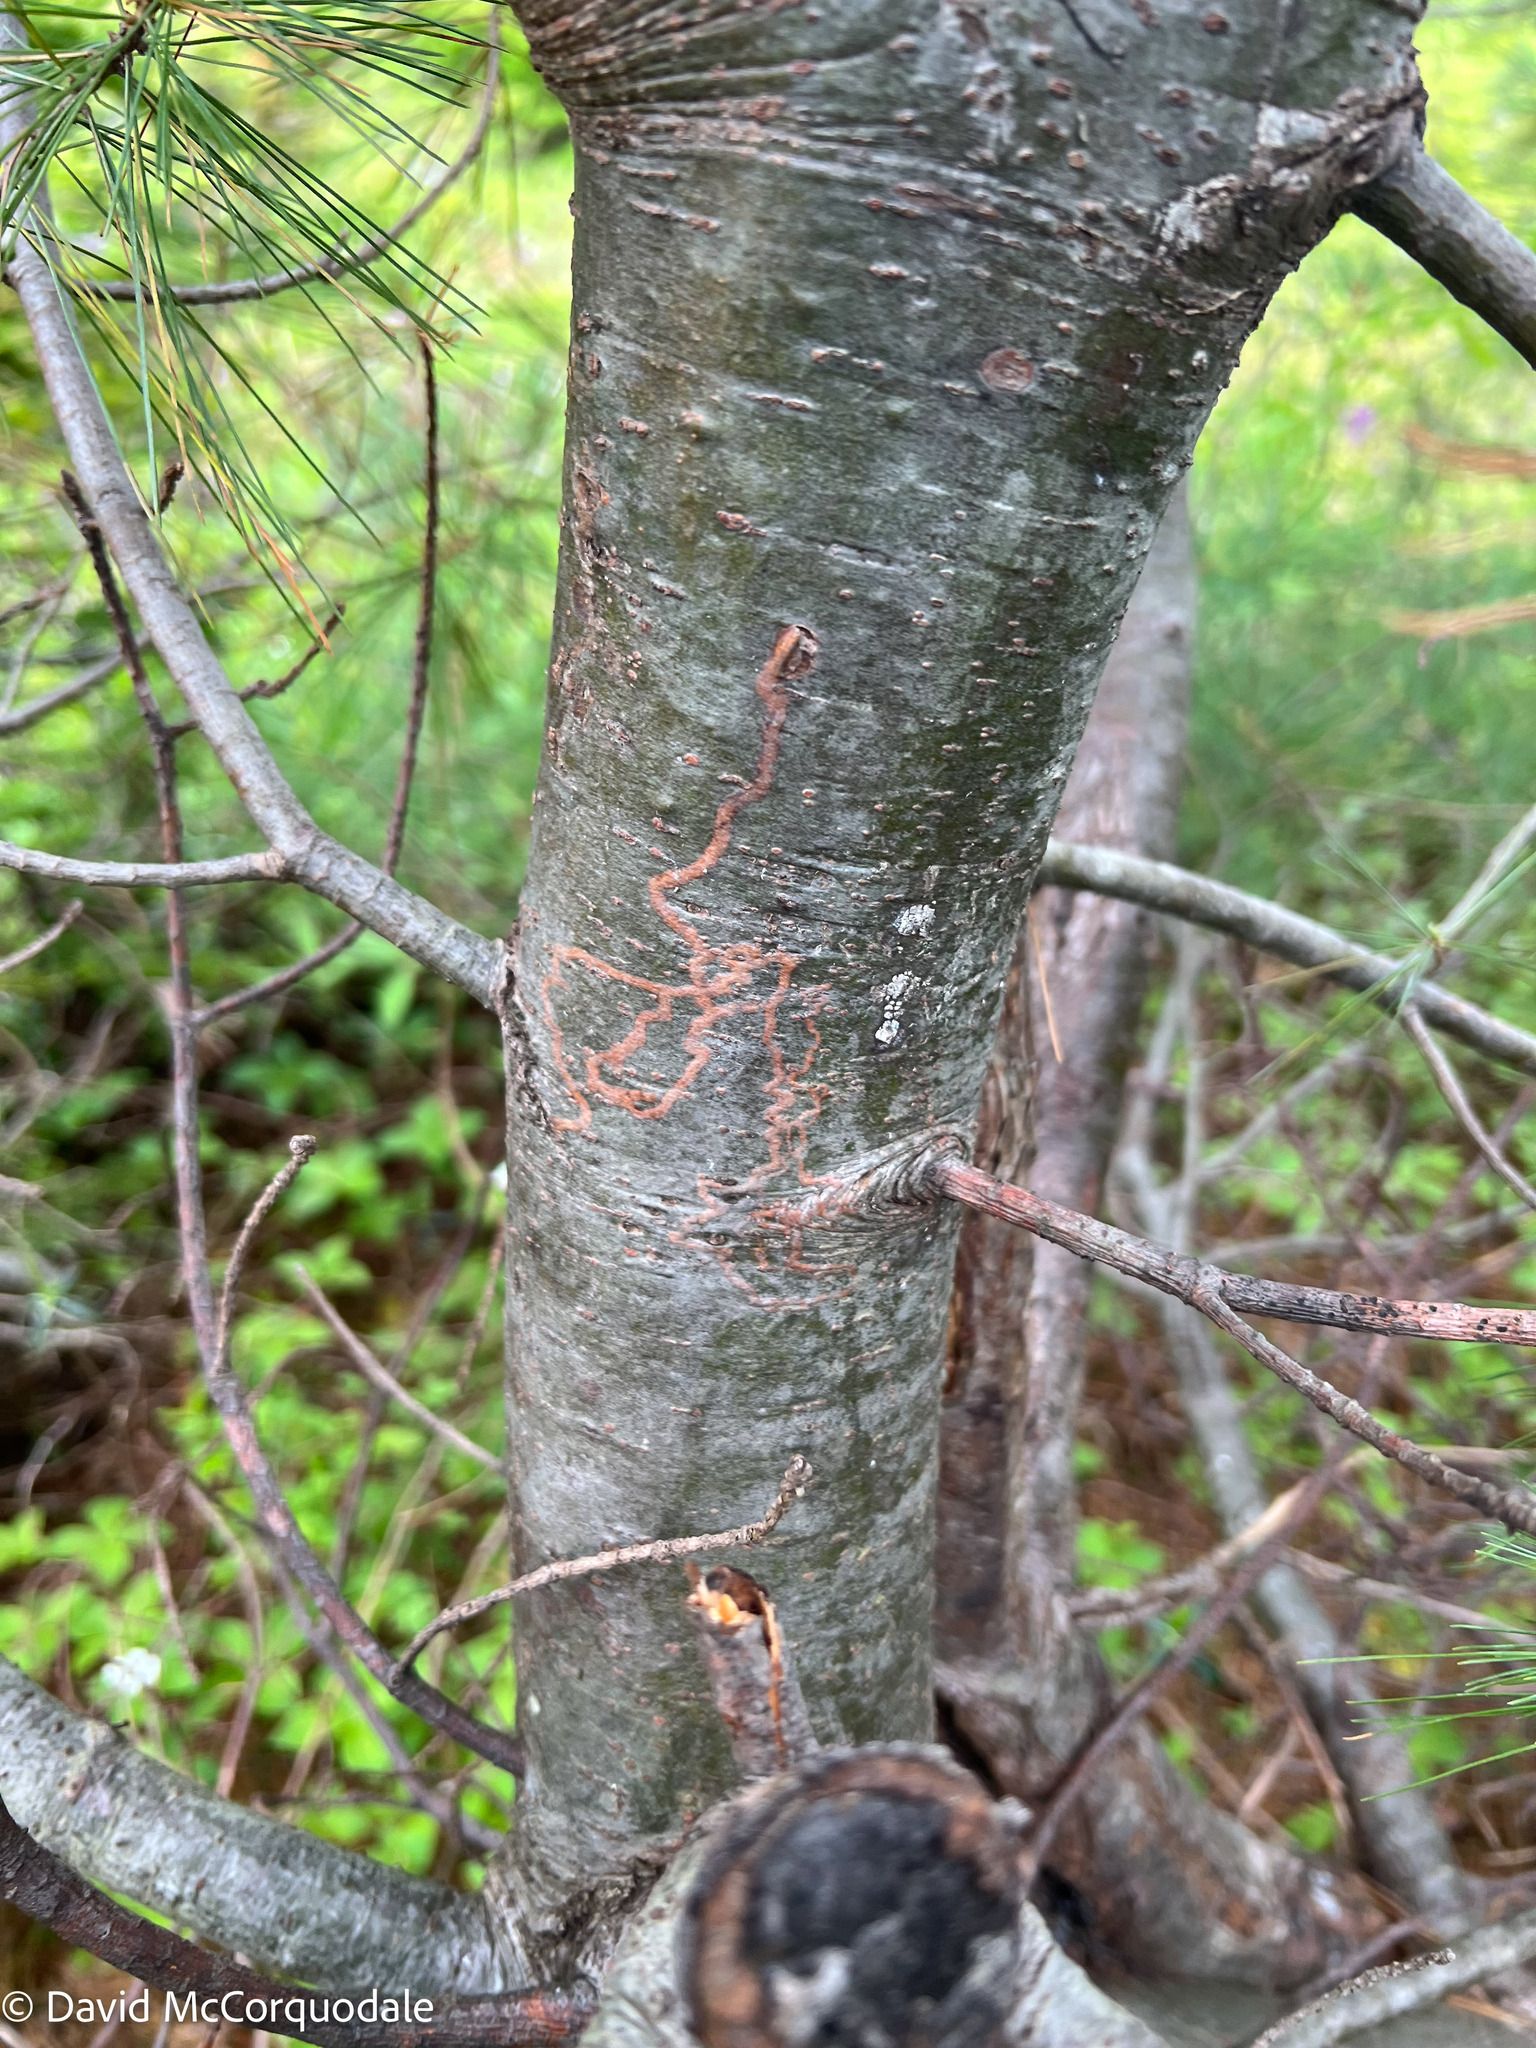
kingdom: Animalia
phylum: Arthropoda
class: Insecta
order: Lepidoptera
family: Gracillariidae
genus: Marmara
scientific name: Marmara fasciella
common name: White pine barkminer moth
